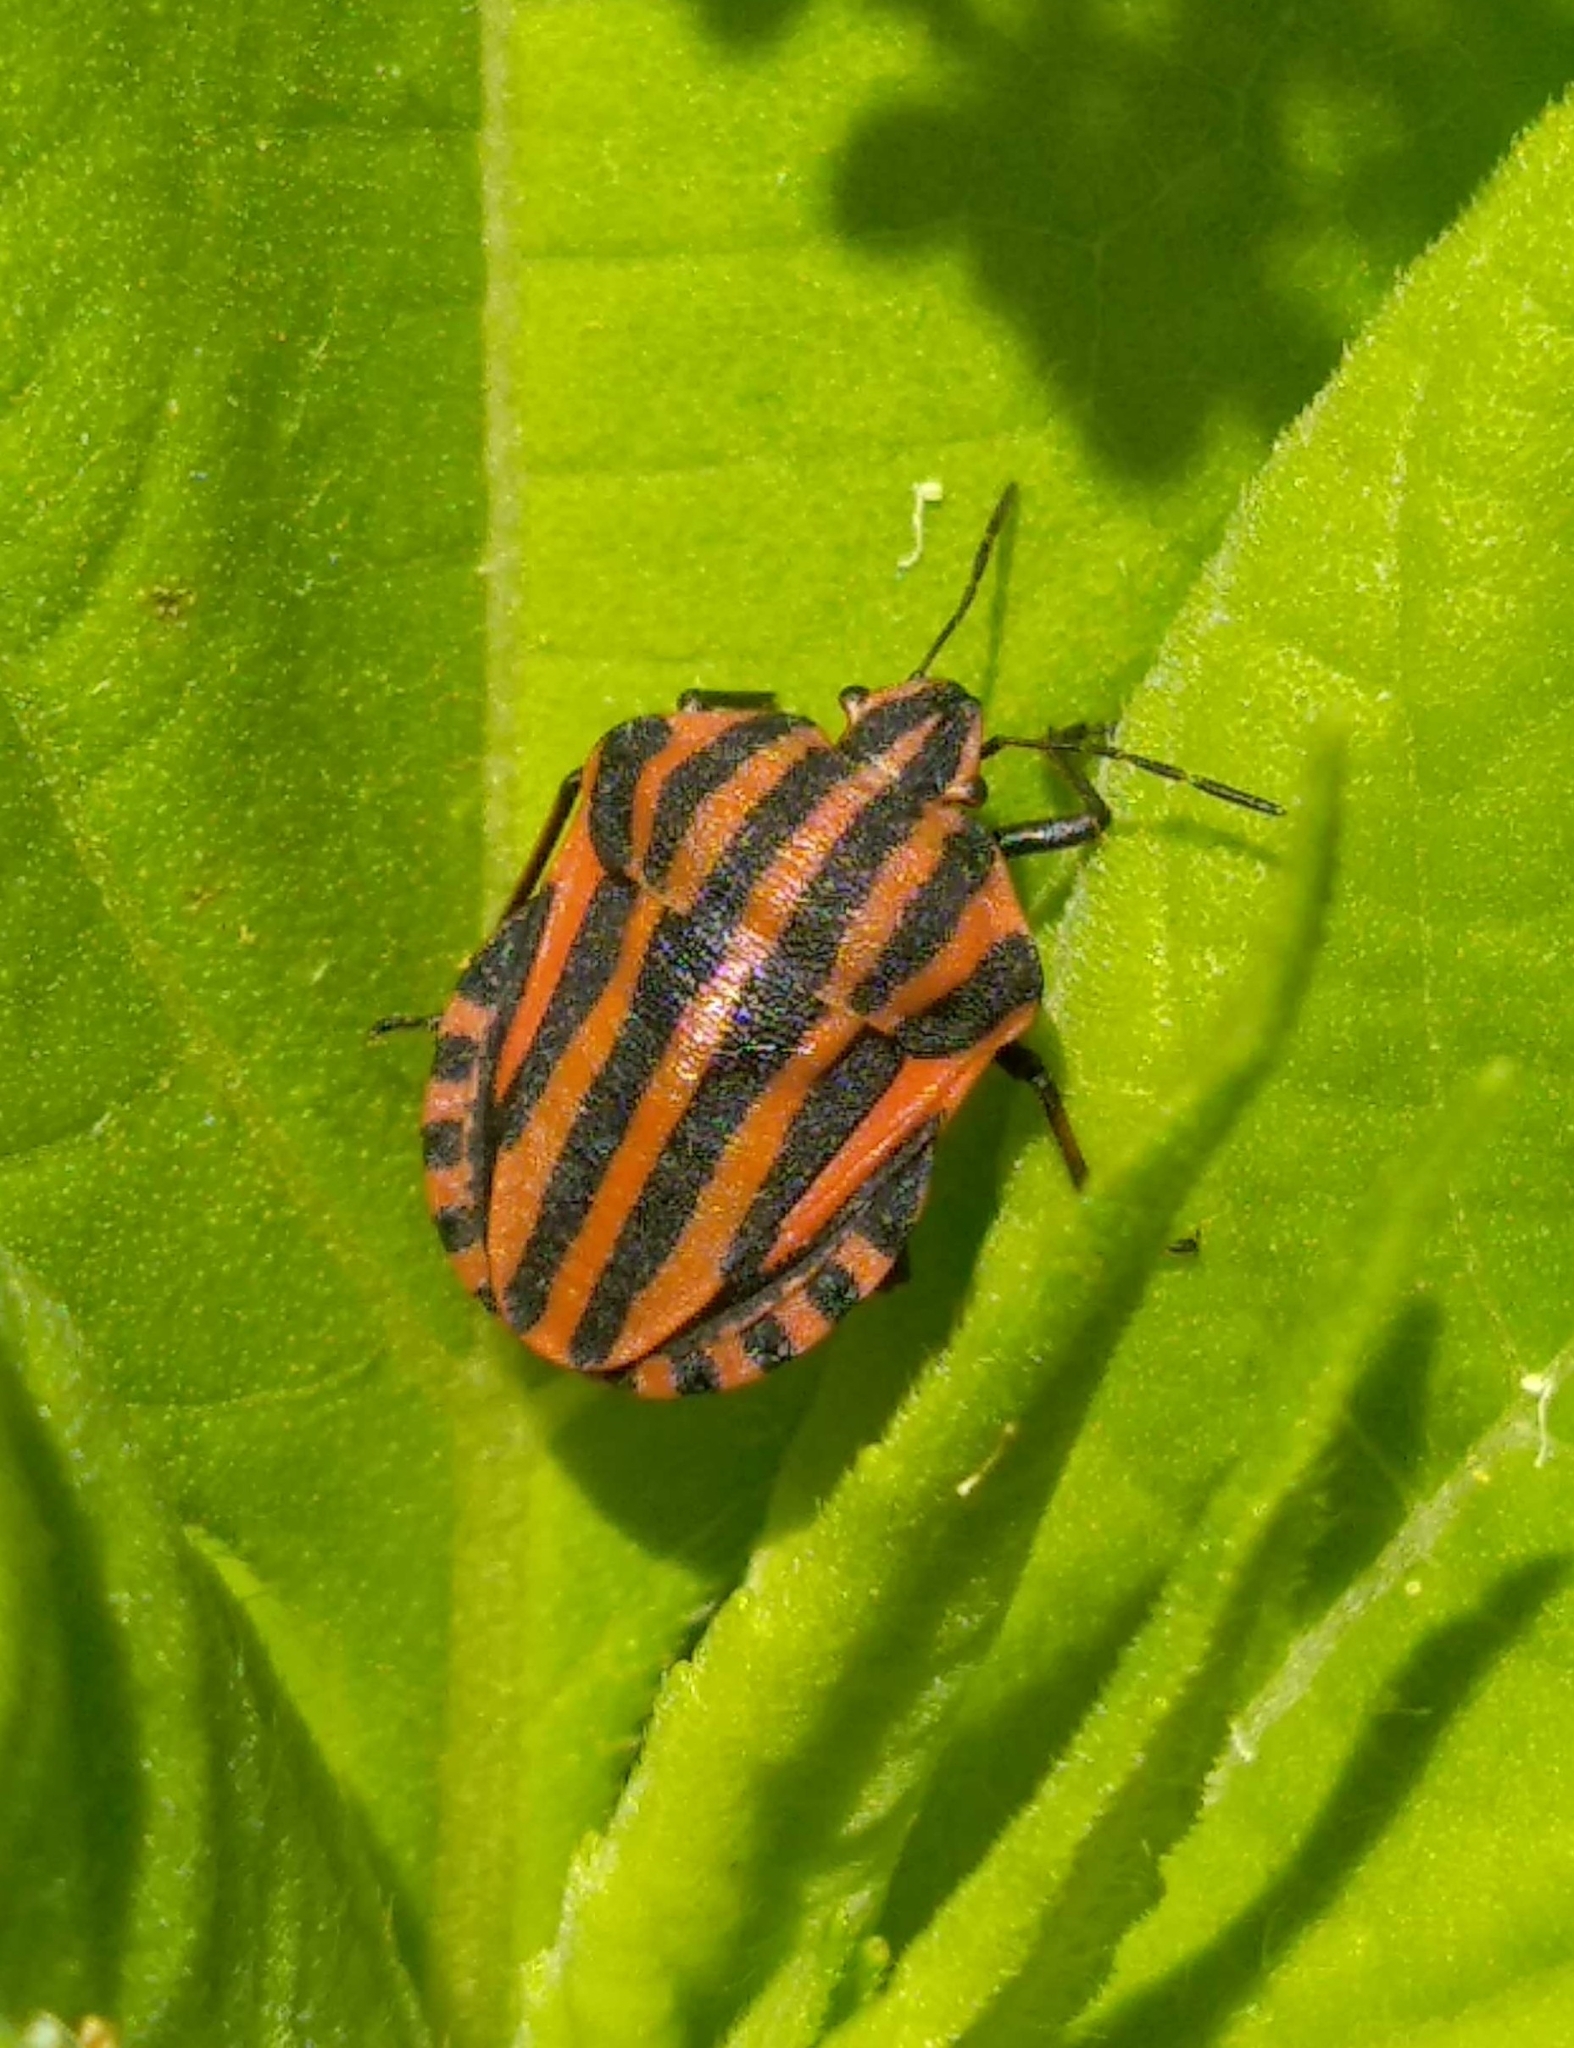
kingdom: Animalia
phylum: Arthropoda
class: Insecta
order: Hemiptera
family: Pentatomidae
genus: Graphosoma
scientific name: Graphosoma italicum
